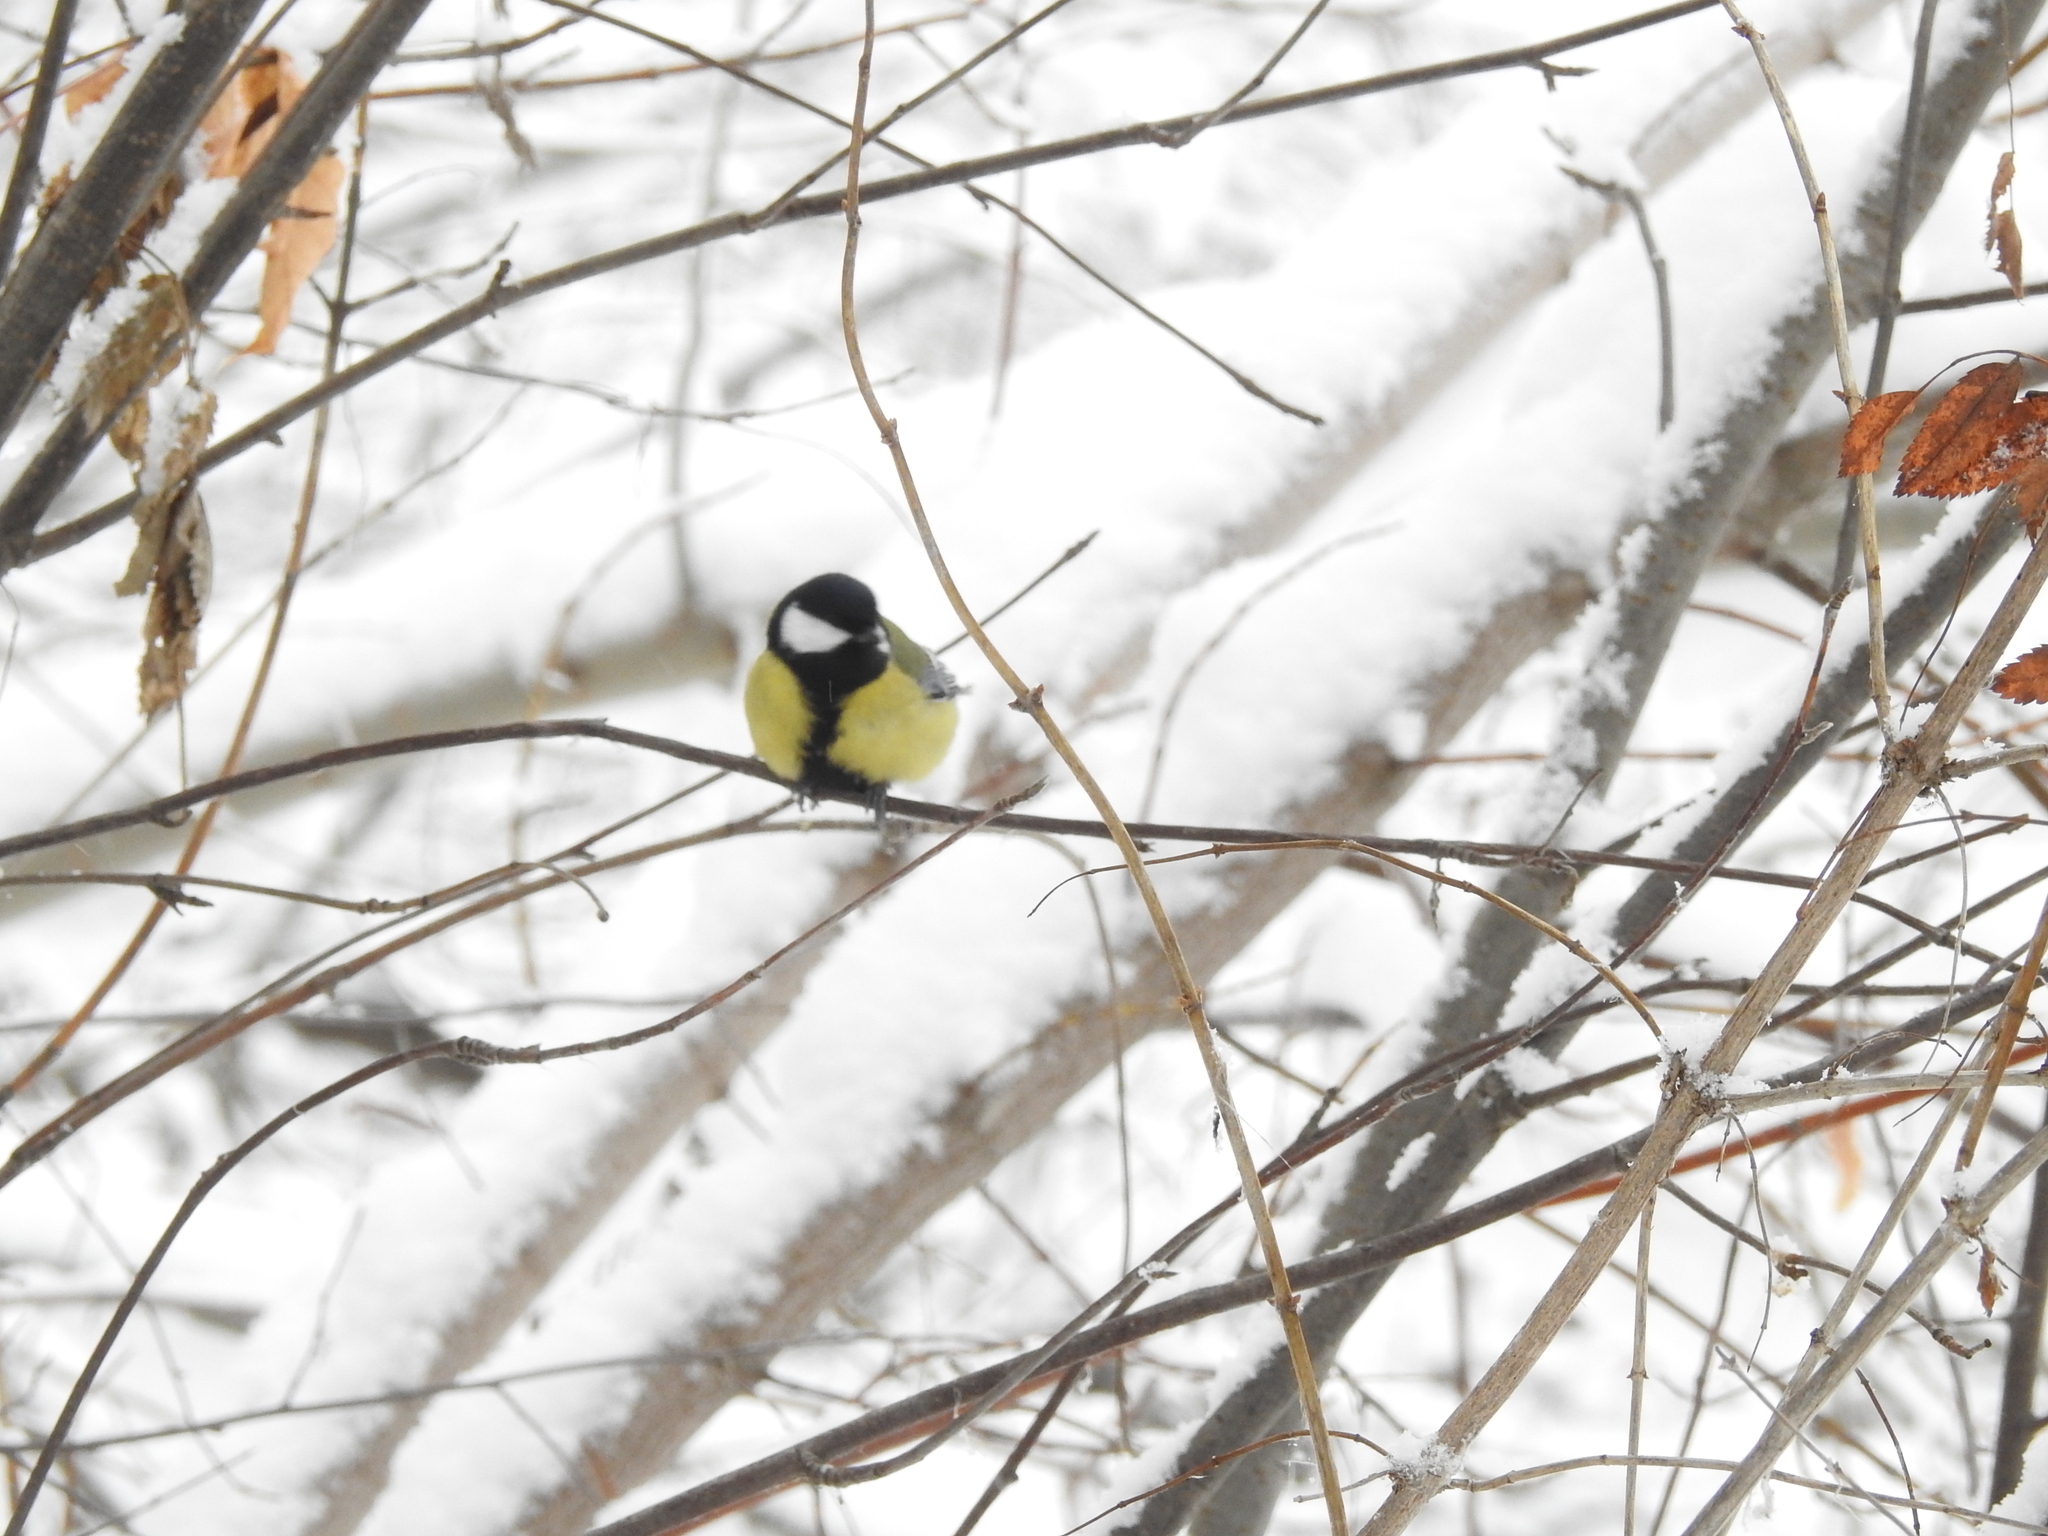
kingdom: Animalia
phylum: Chordata
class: Aves
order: Passeriformes
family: Paridae
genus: Parus
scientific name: Parus major
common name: Great tit
